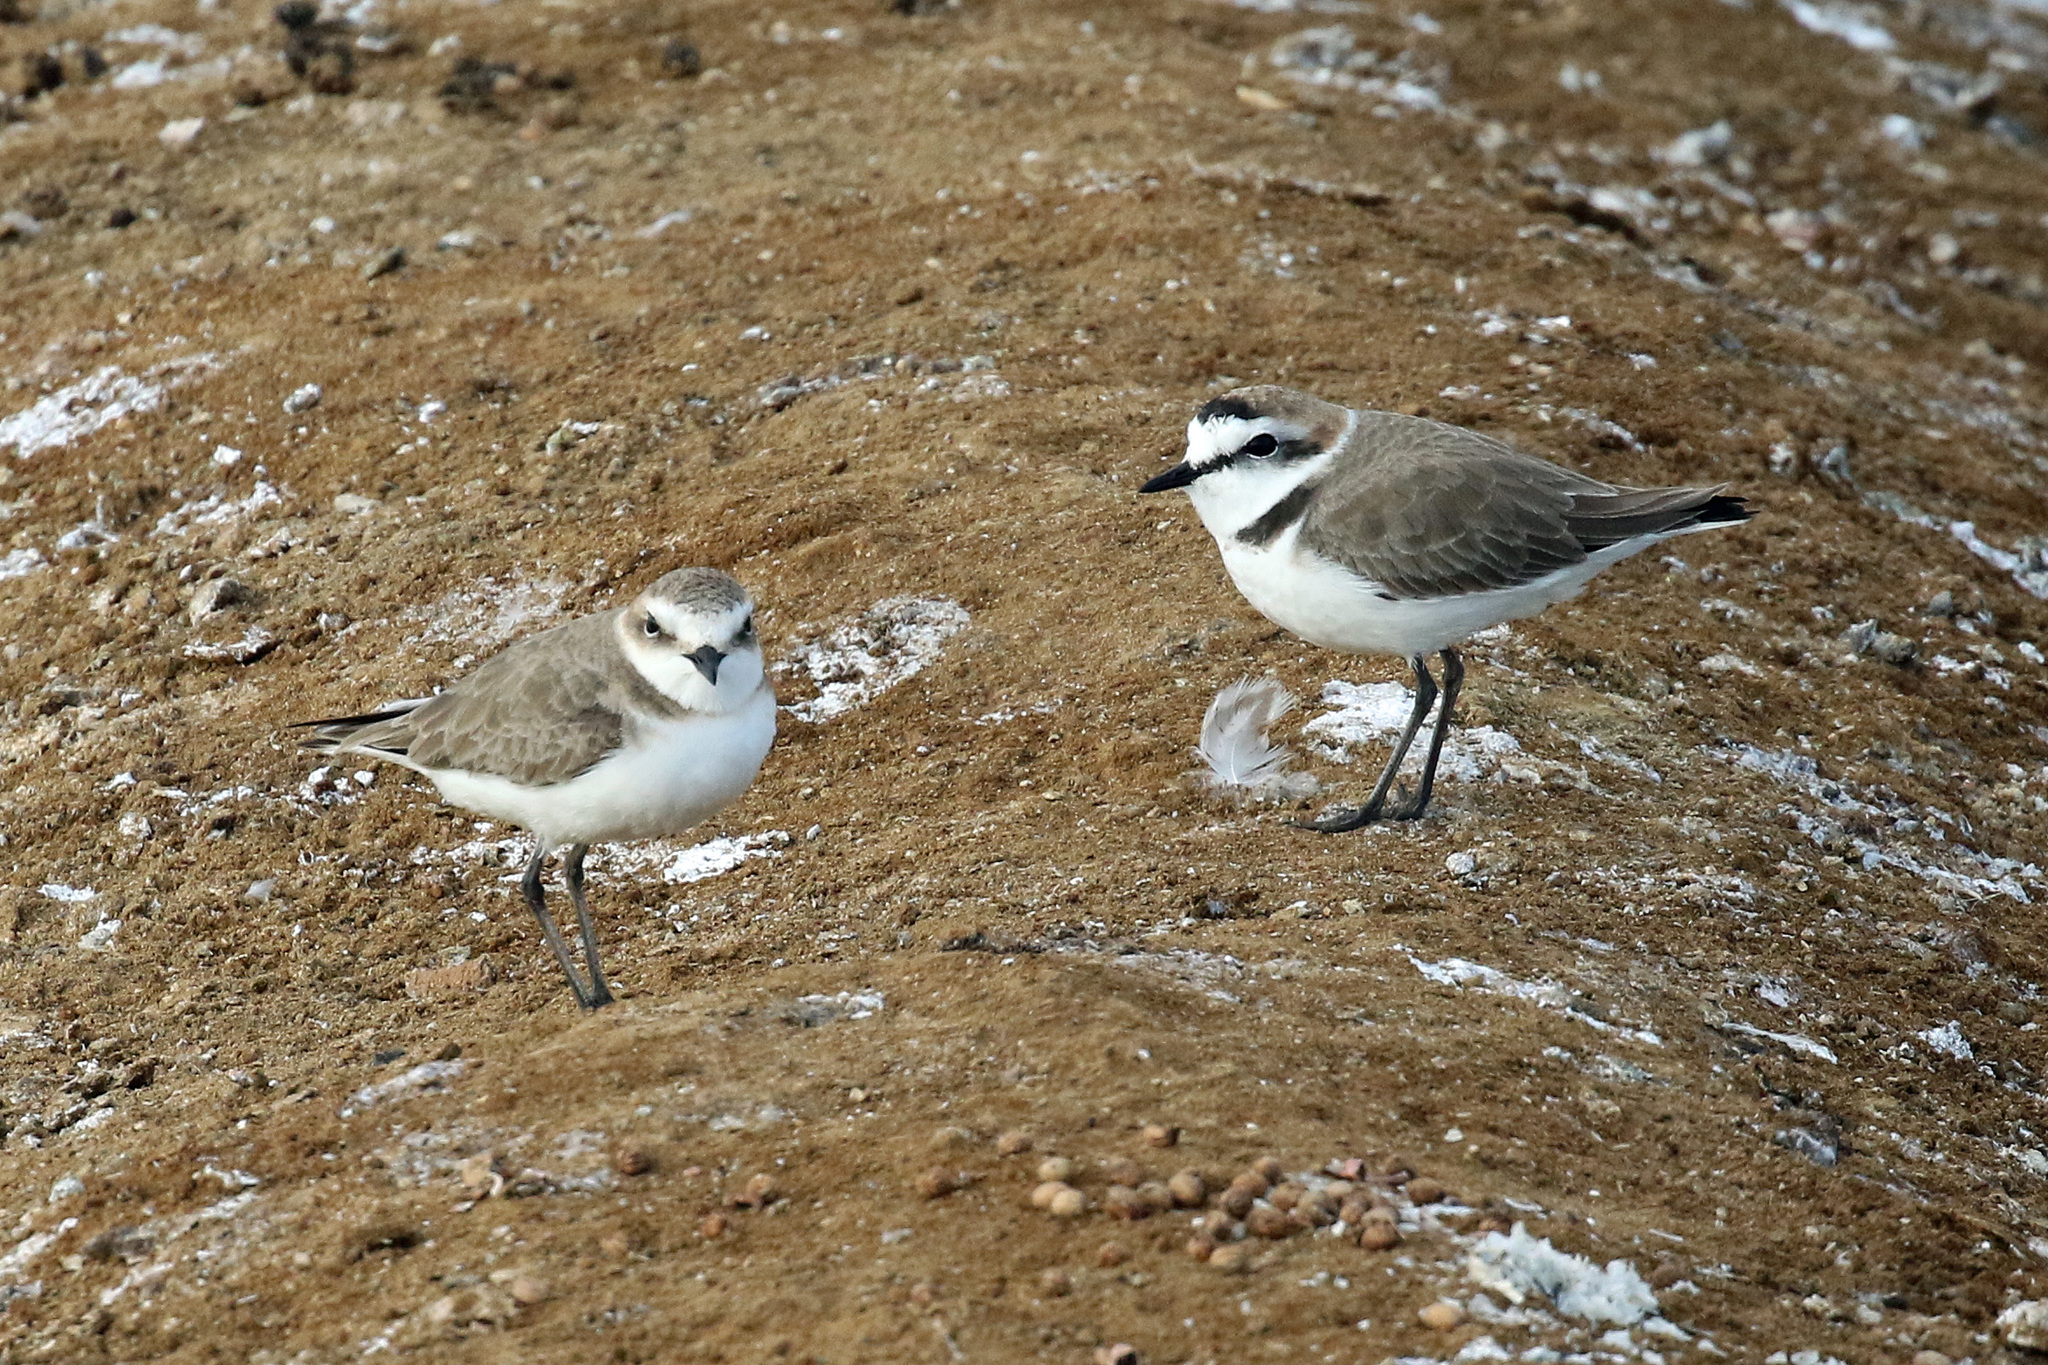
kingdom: Animalia
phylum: Chordata
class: Aves
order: Charadriiformes
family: Charadriidae
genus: Charadrius
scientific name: Charadrius alexandrinus
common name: Kentish plover
